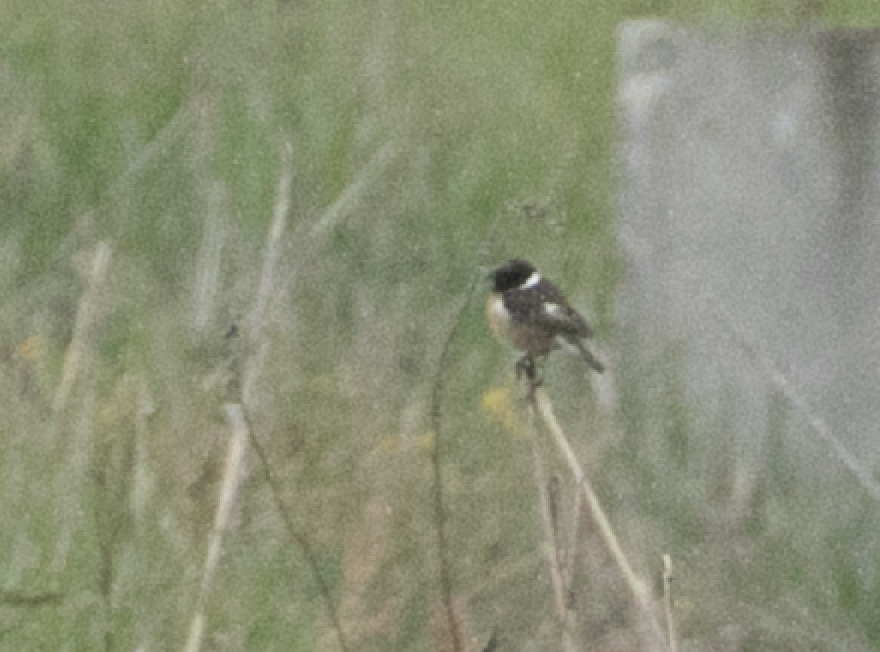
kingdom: Animalia
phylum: Chordata
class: Aves
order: Passeriformes
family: Muscicapidae
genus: Saxicola
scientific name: Saxicola rubicola
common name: European stonechat
